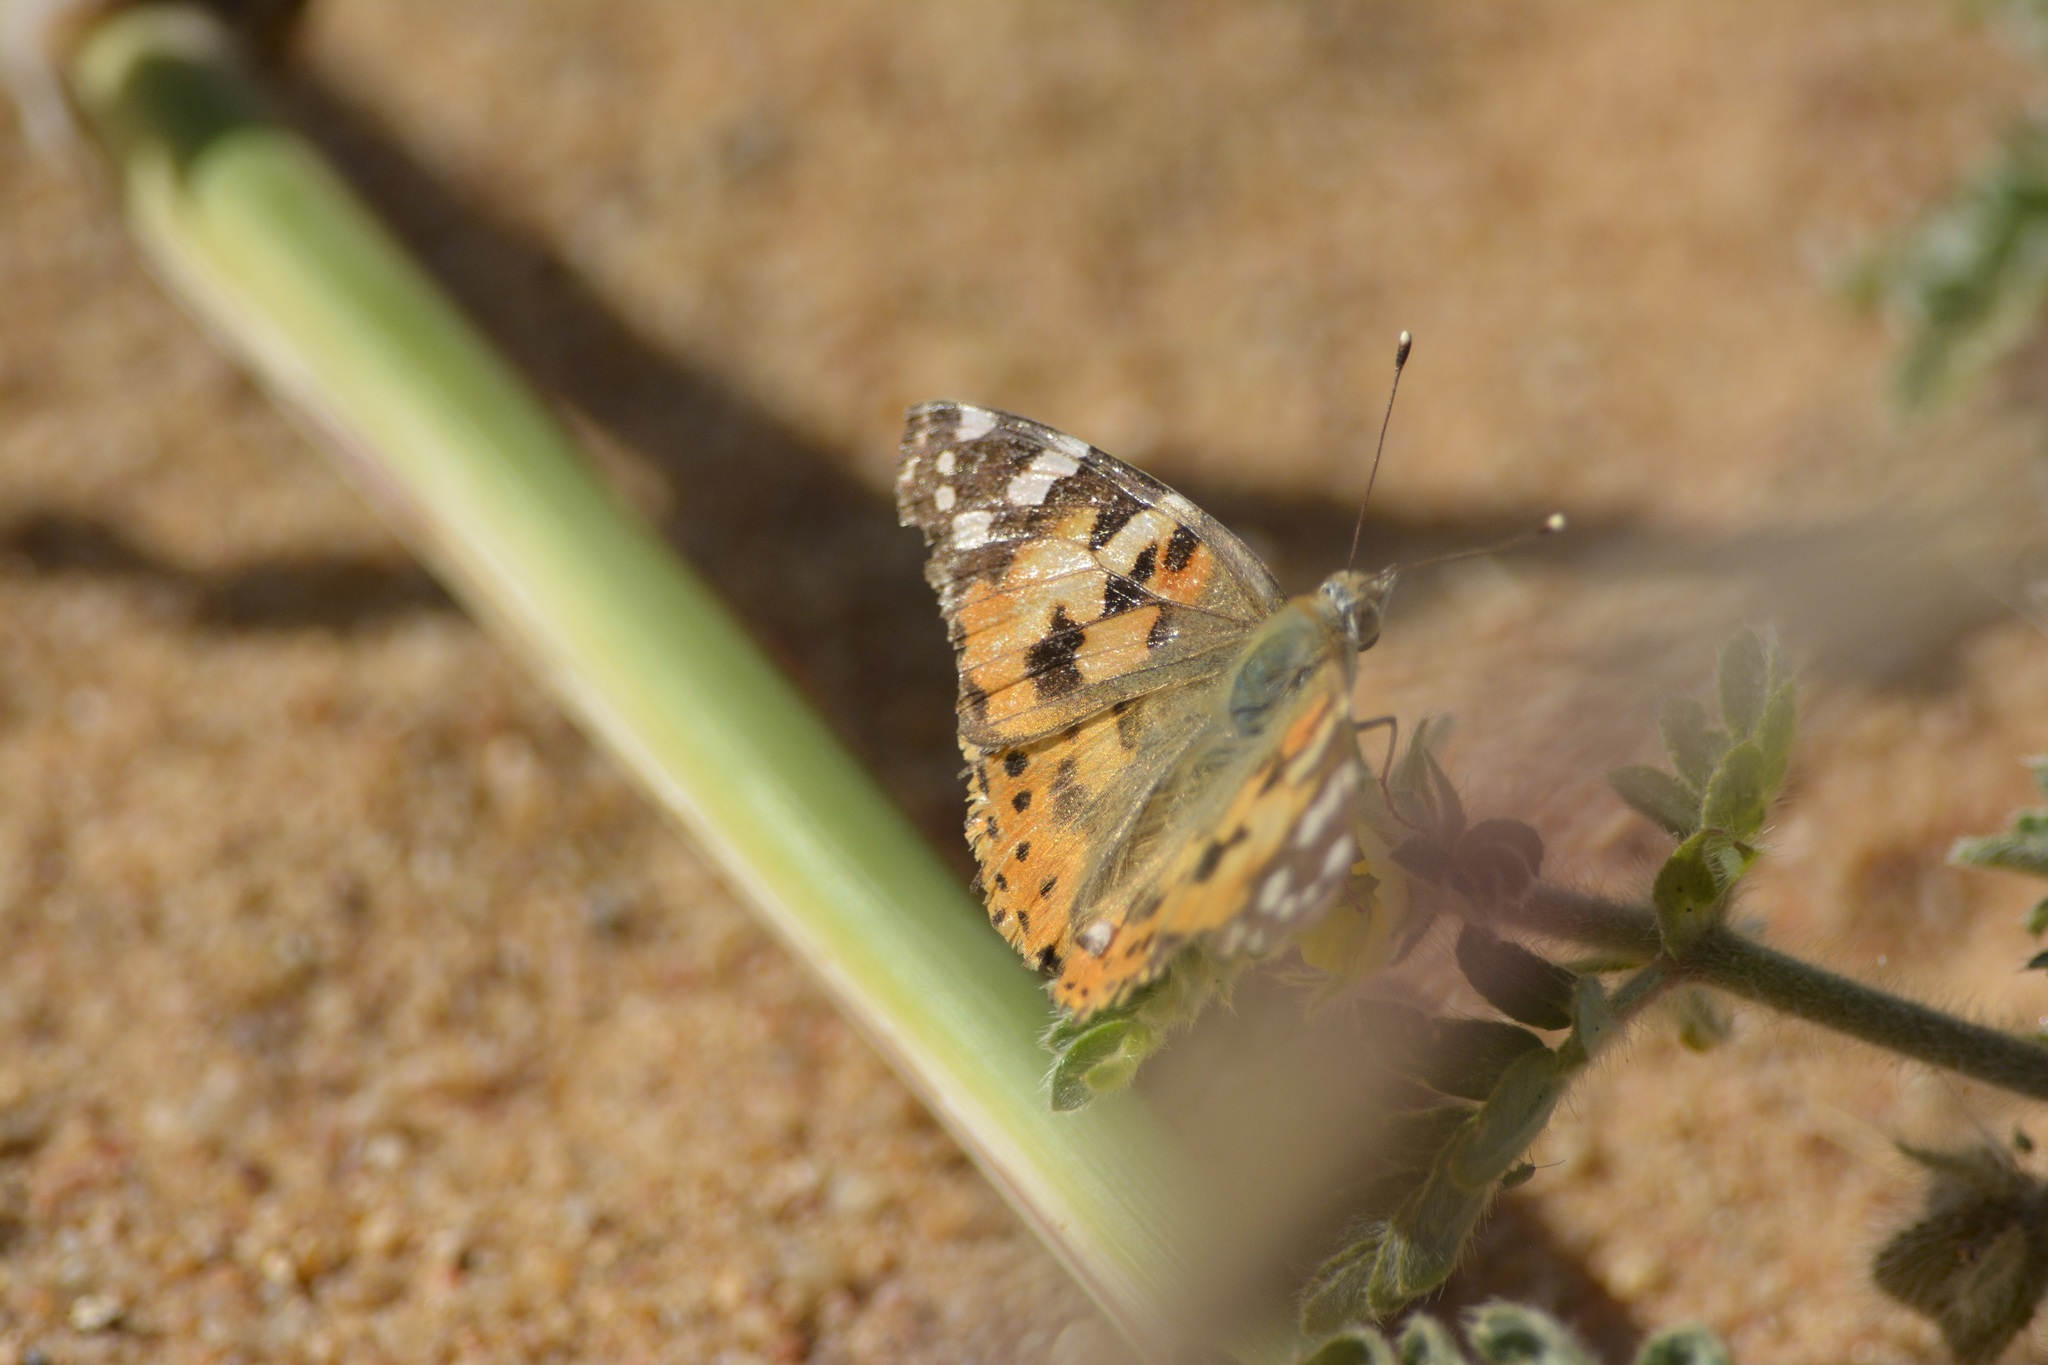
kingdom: Animalia
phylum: Arthropoda
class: Insecta
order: Lepidoptera
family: Nymphalidae
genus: Vanessa
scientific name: Vanessa cardui
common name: Painted lady
